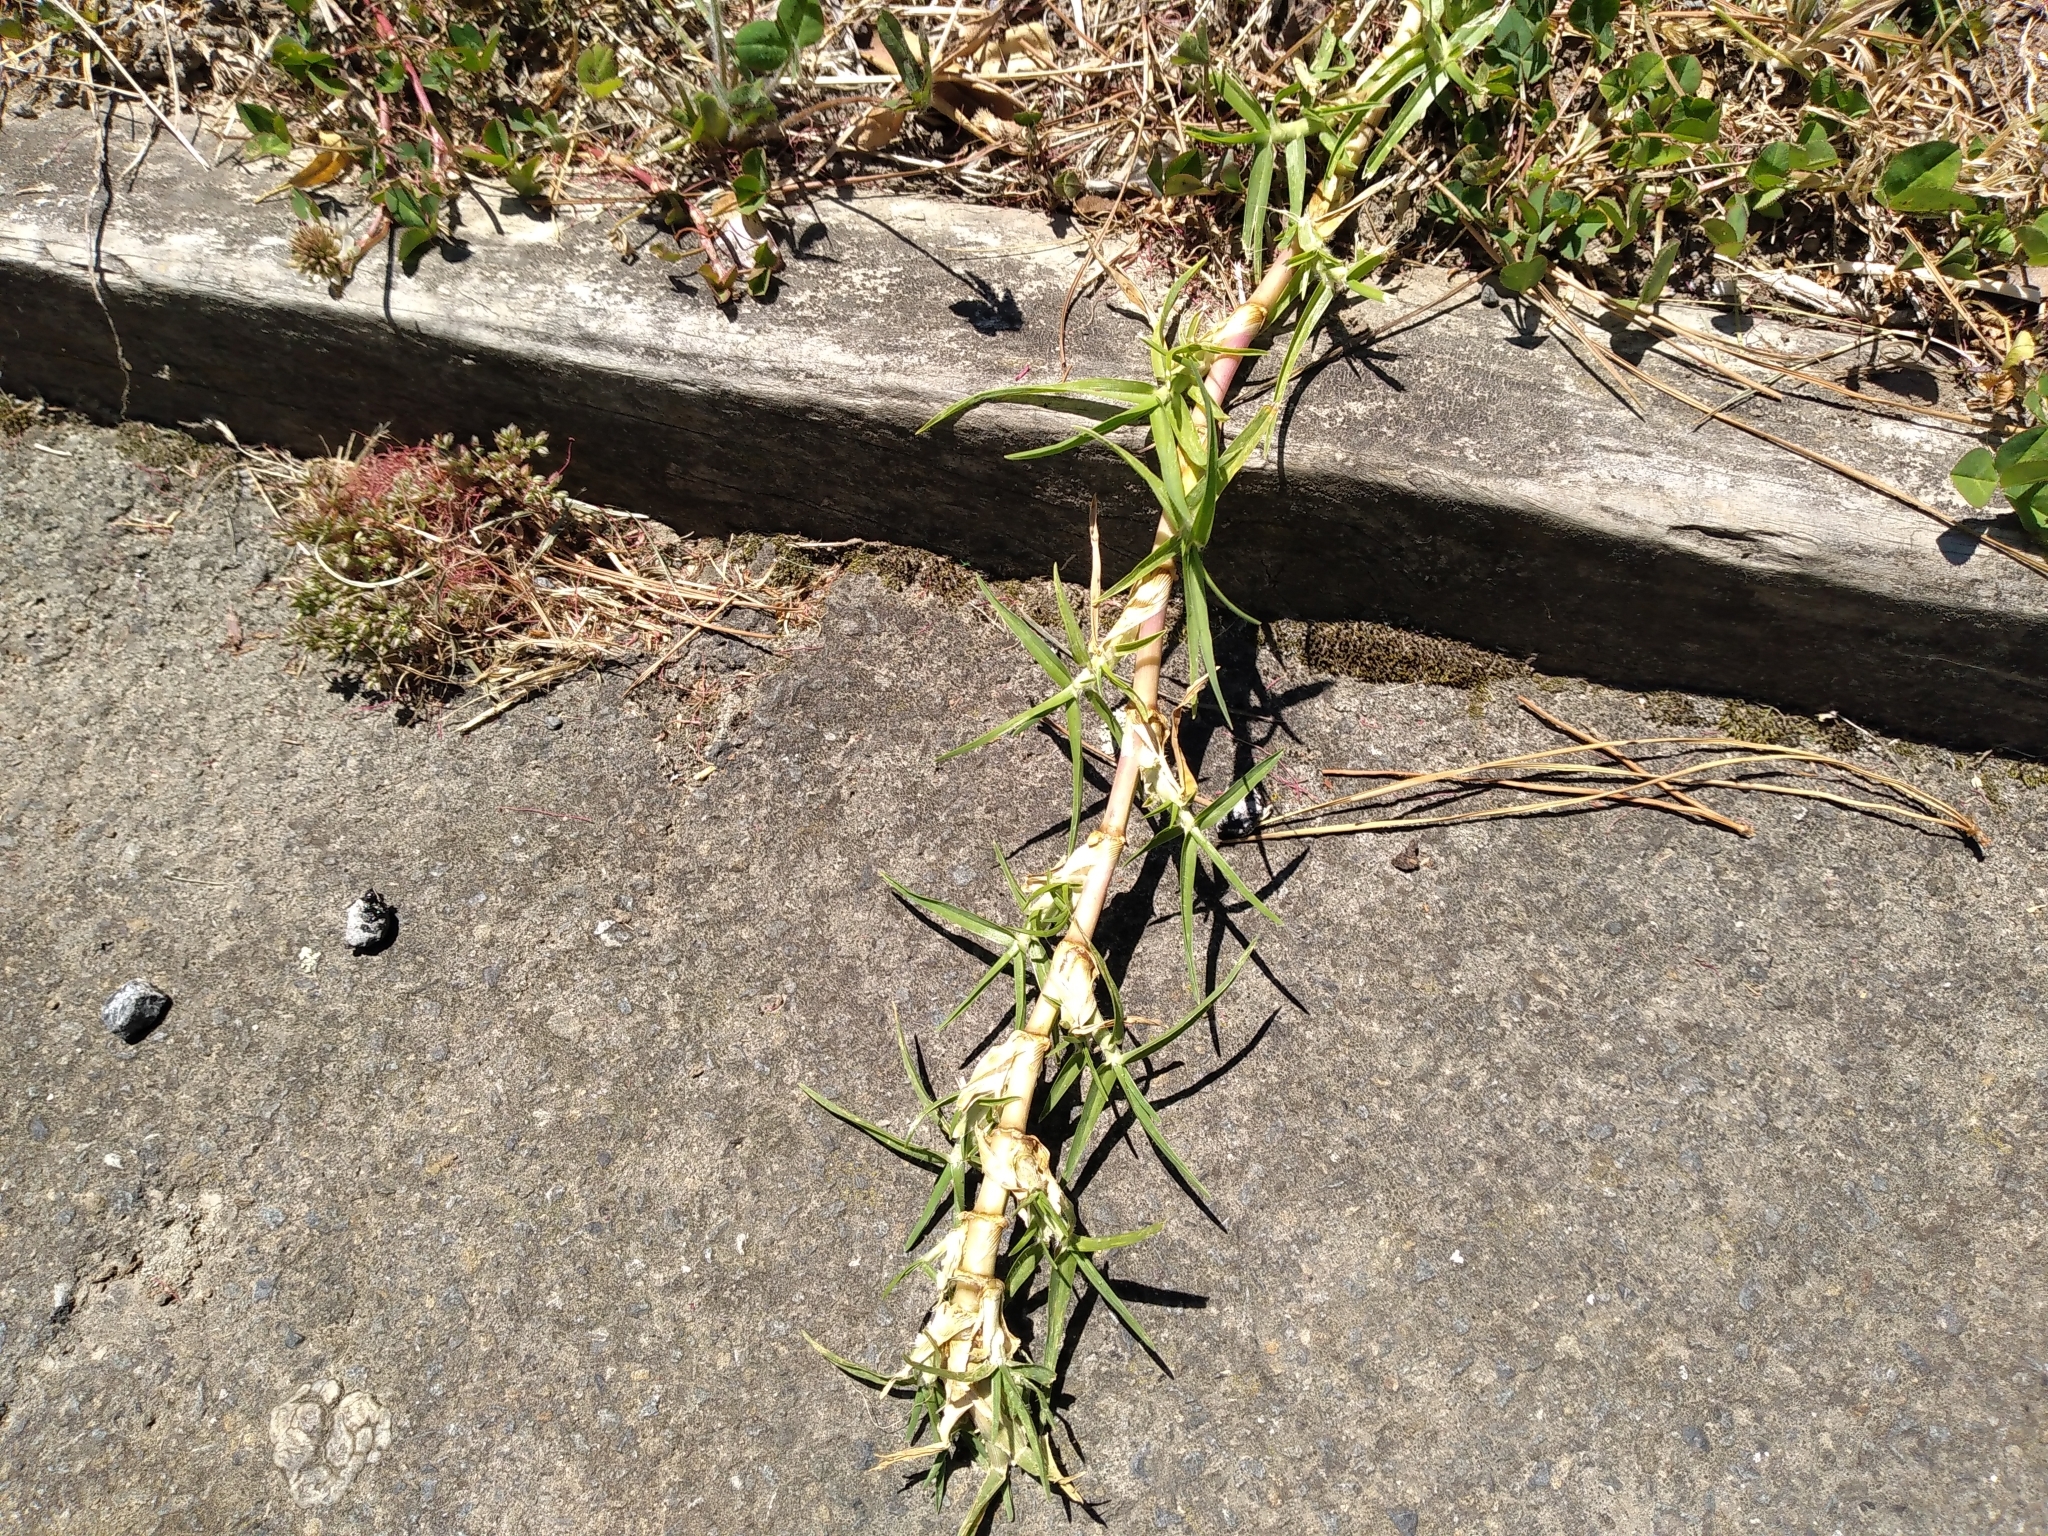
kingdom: Plantae
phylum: Tracheophyta
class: Liliopsida
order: Poales
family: Poaceae
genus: Cenchrus
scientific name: Cenchrus clandestinus
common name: Kikuyugrass
